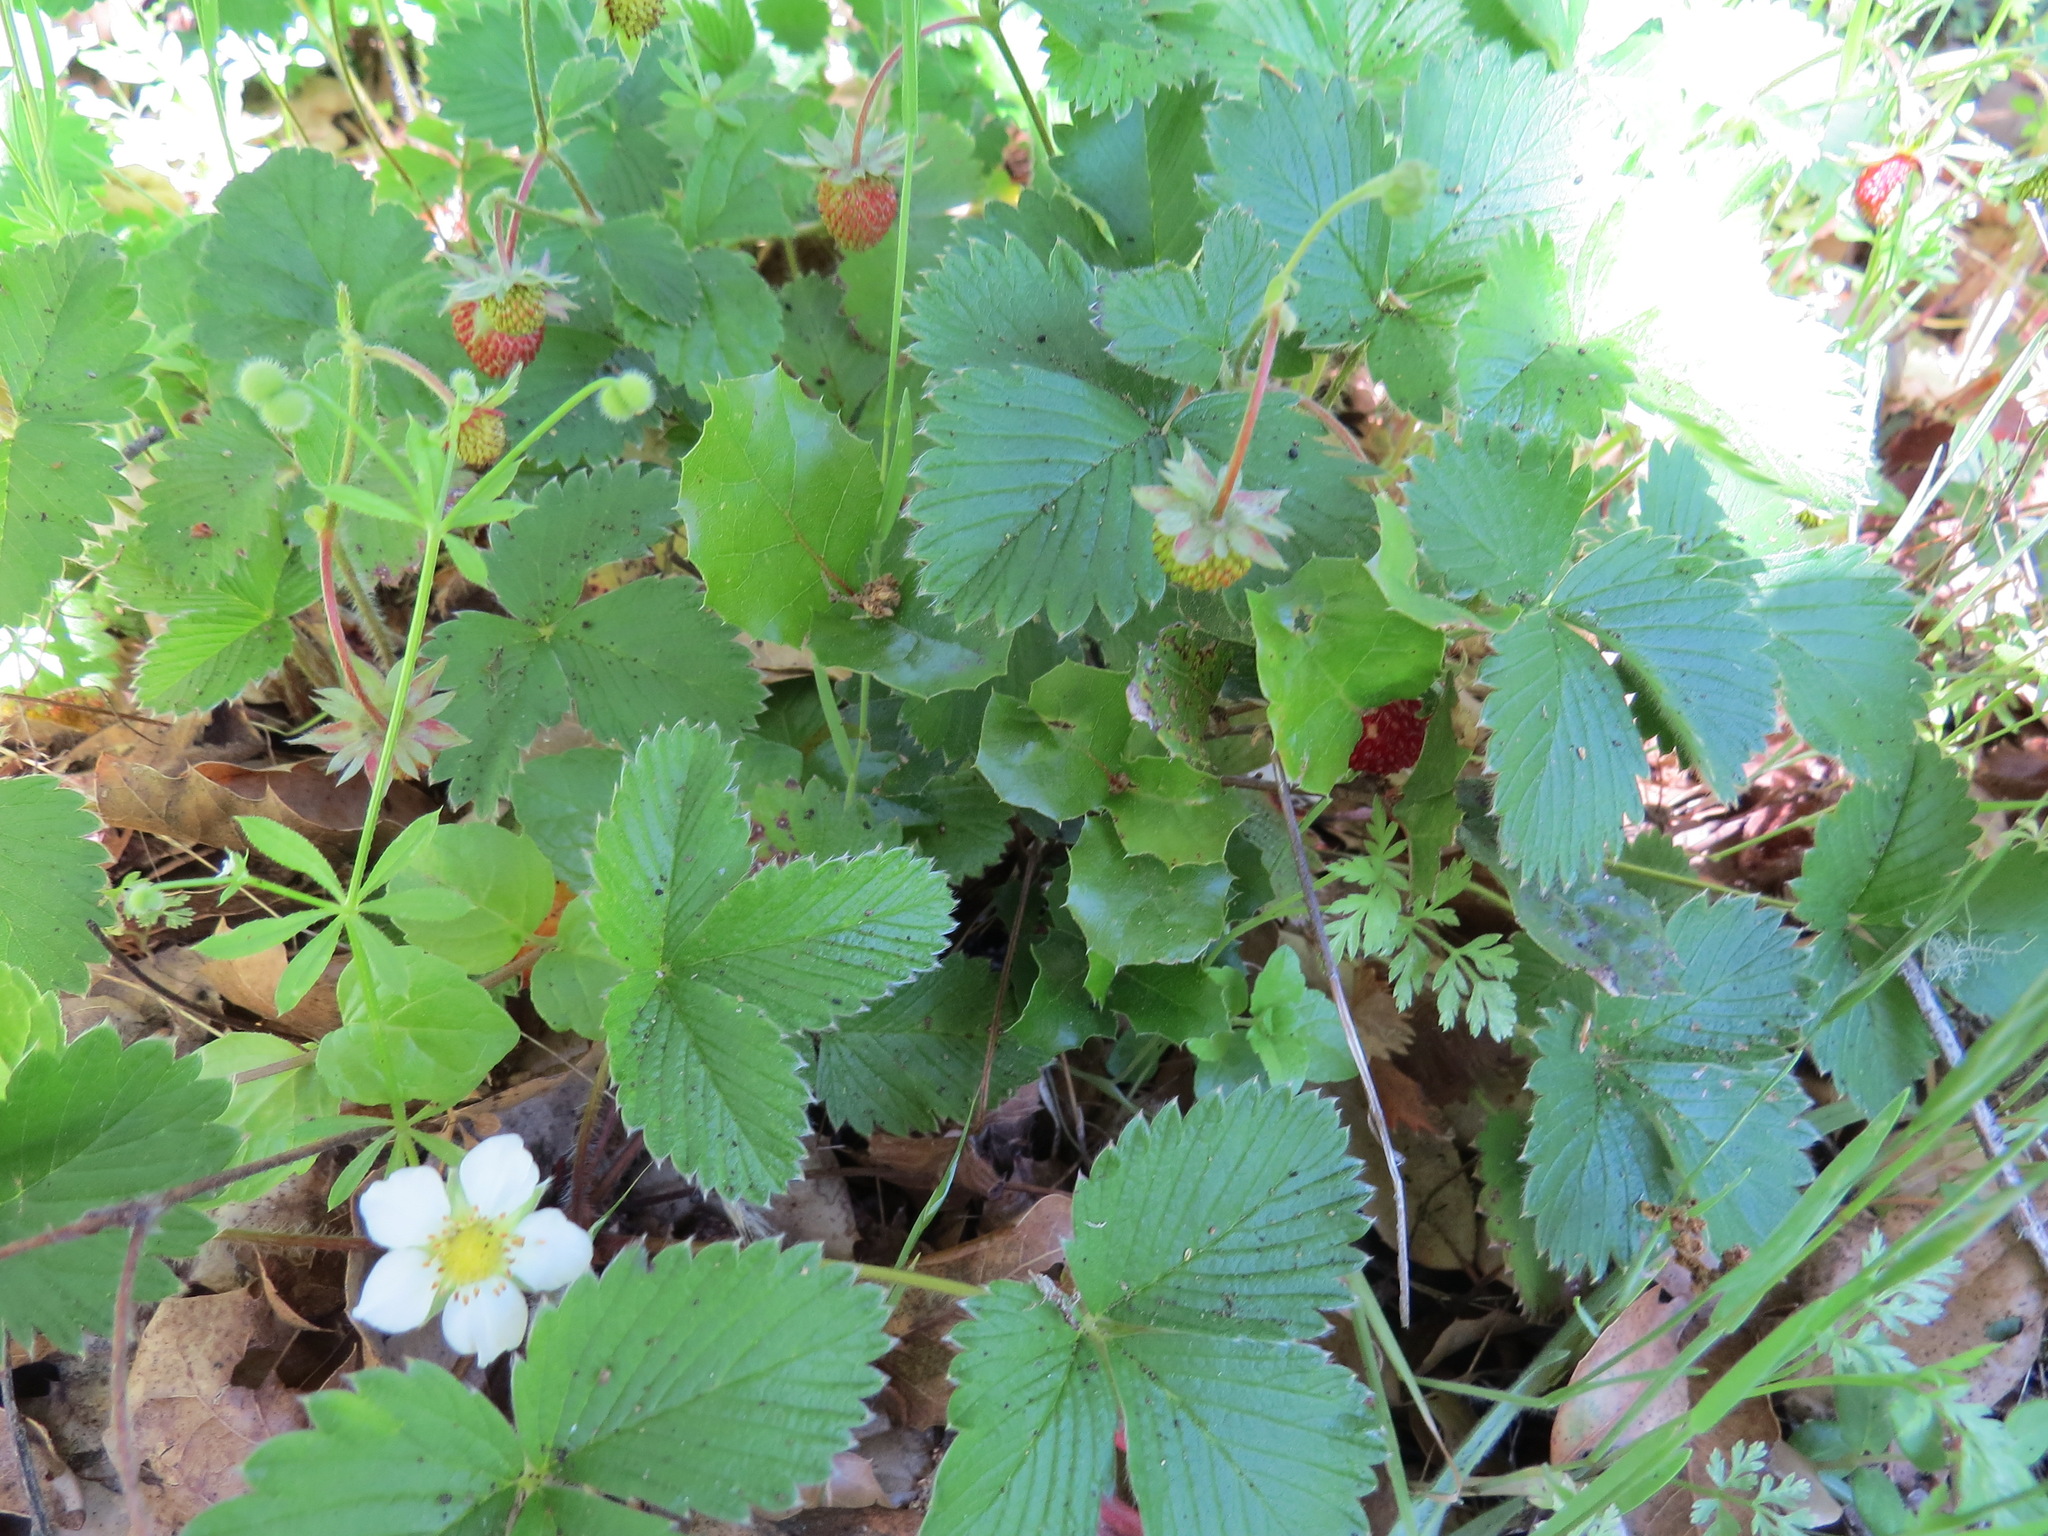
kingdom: Plantae
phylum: Tracheophyta
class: Magnoliopsida
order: Rosales
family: Rosaceae
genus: Fragaria
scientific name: Fragaria vesca
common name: Wild strawberry
